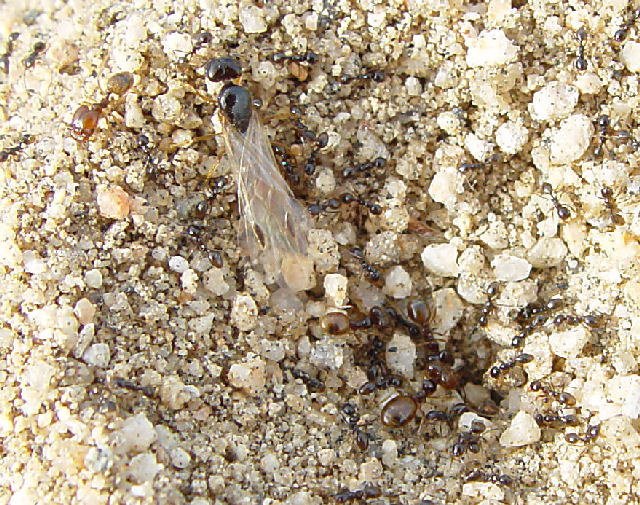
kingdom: Animalia
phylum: Arthropoda
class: Insecta
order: Hymenoptera
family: Formicidae
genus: Pheidole
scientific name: Pheidole barbata
